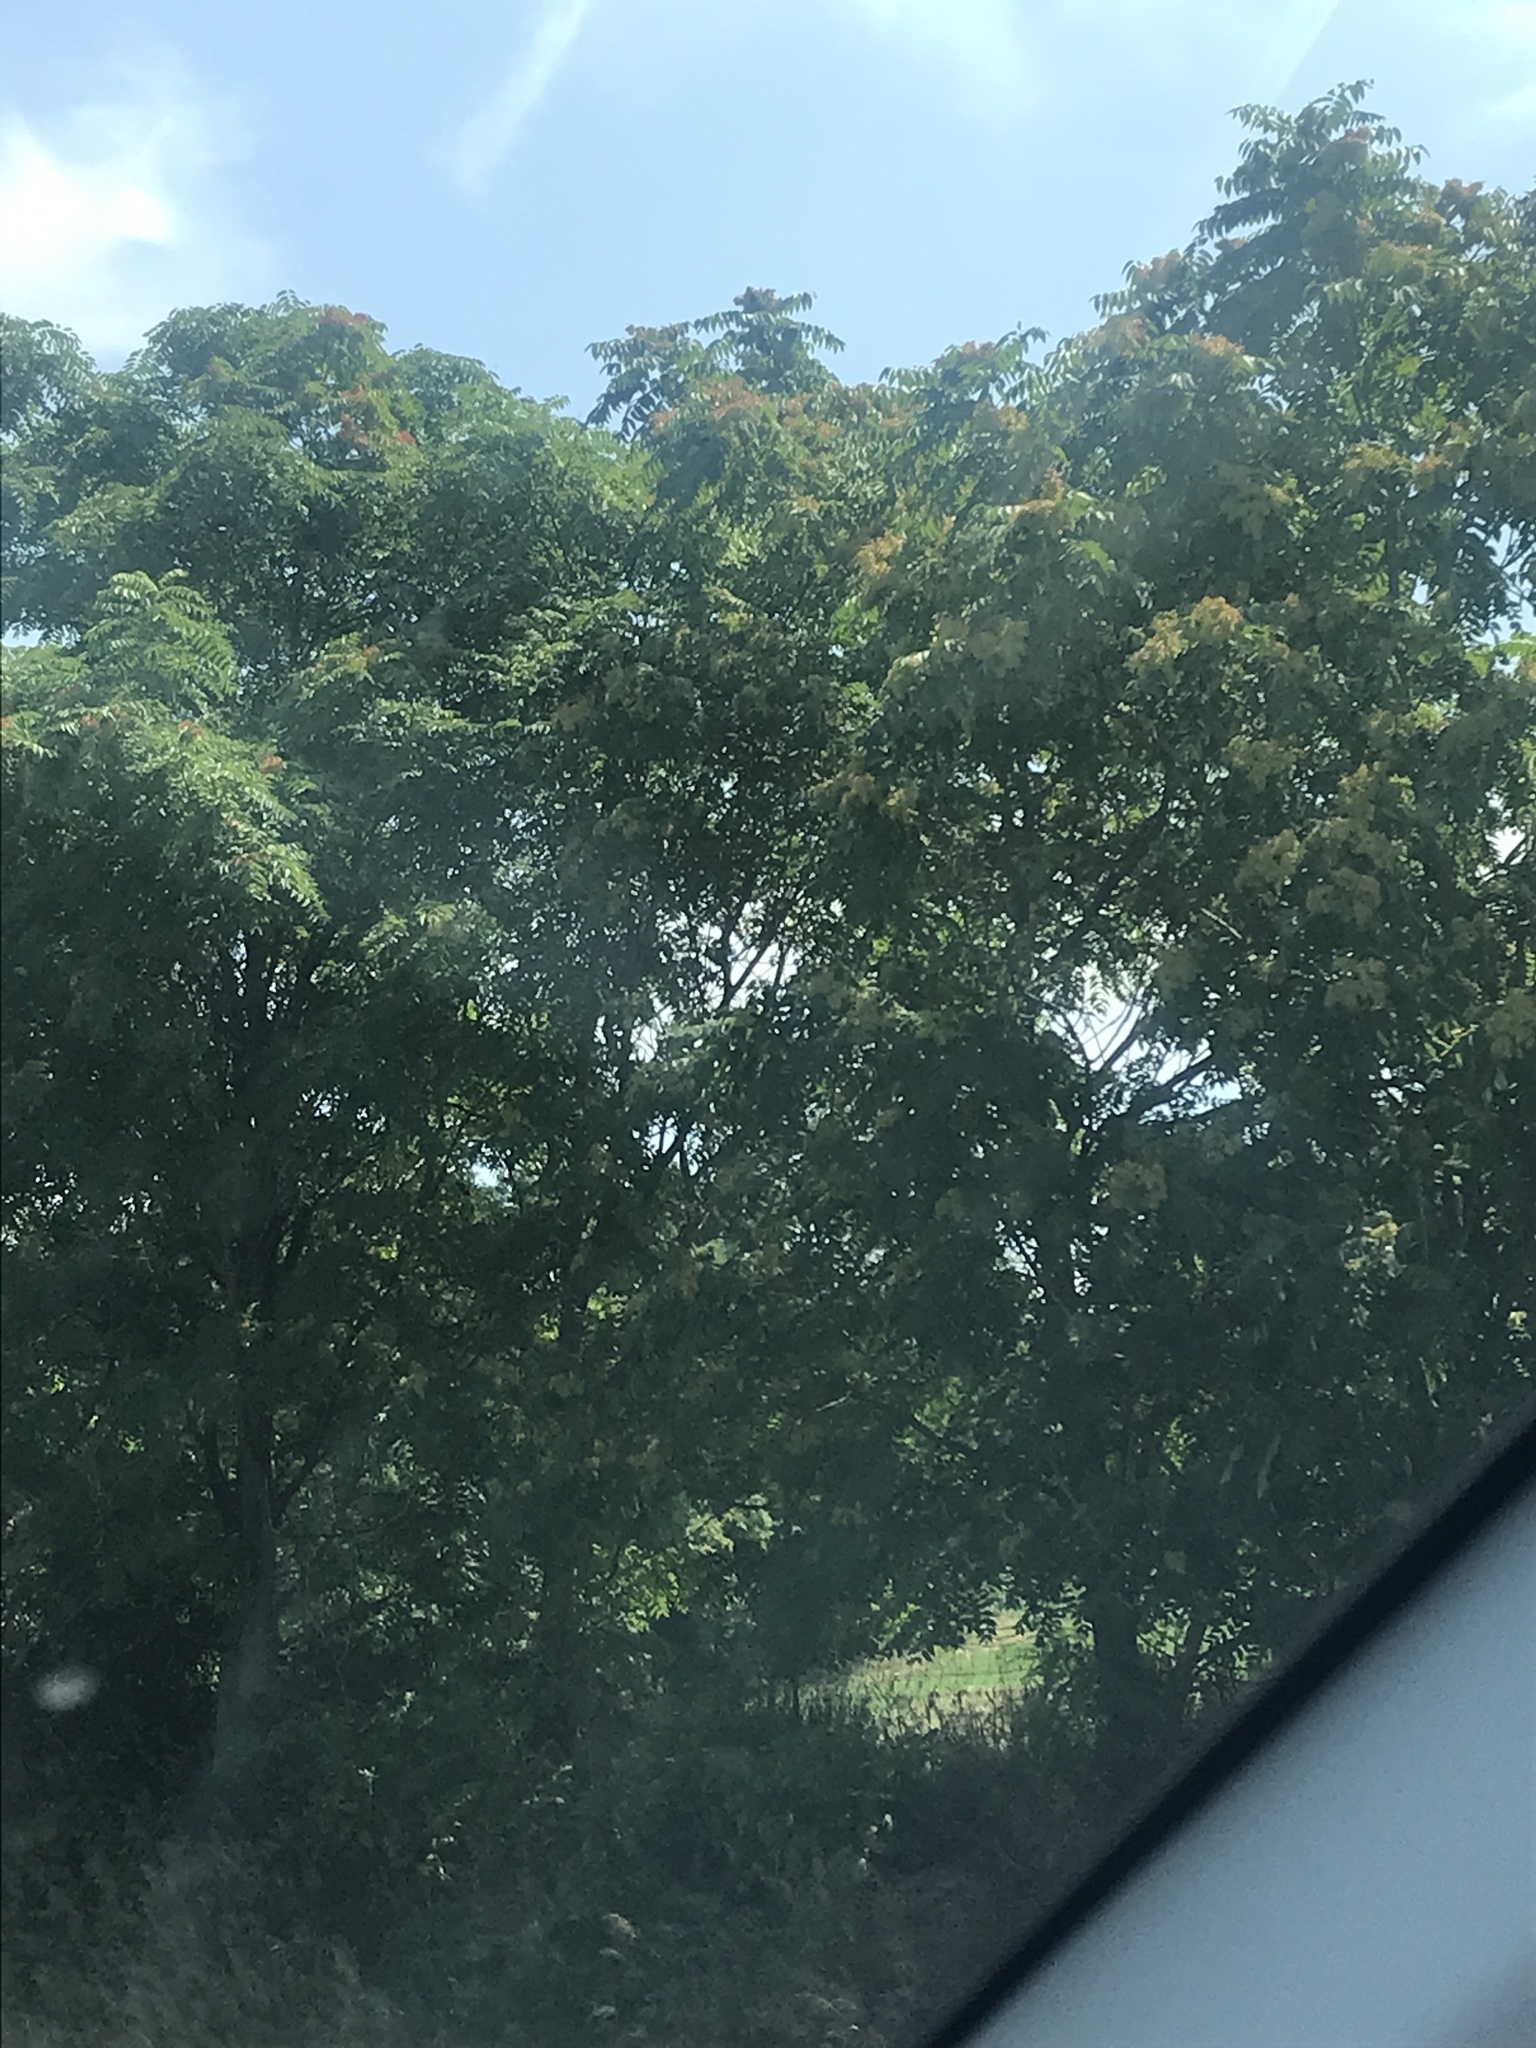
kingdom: Plantae
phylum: Tracheophyta
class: Magnoliopsida
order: Sapindales
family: Simaroubaceae
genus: Ailanthus
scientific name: Ailanthus altissima
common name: Tree-of-heaven
